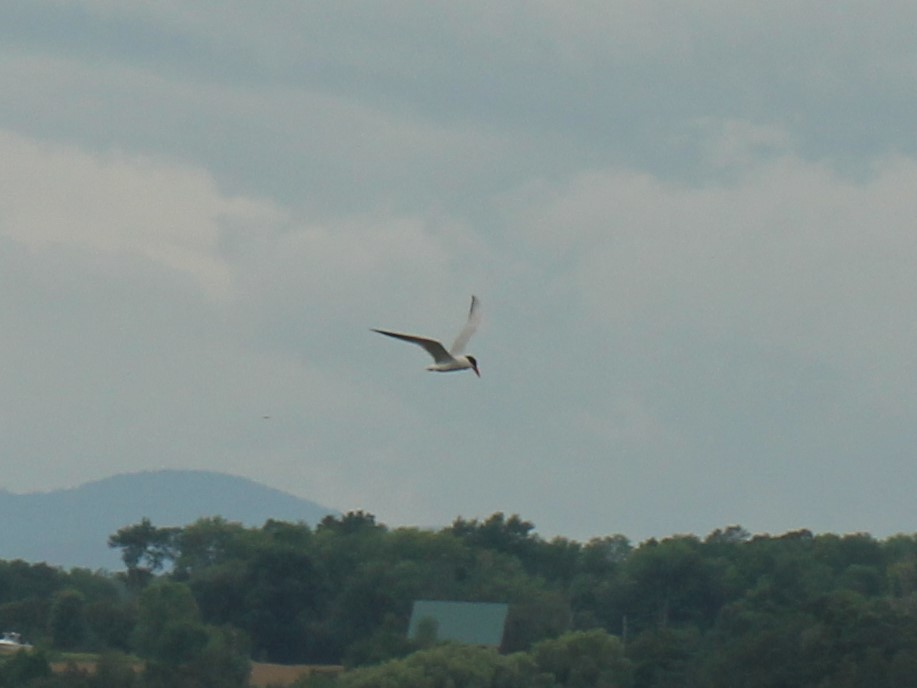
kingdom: Animalia
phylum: Chordata
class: Aves
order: Charadriiformes
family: Laridae
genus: Hydroprogne
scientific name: Hydroprogne caspia
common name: Caspian tern
